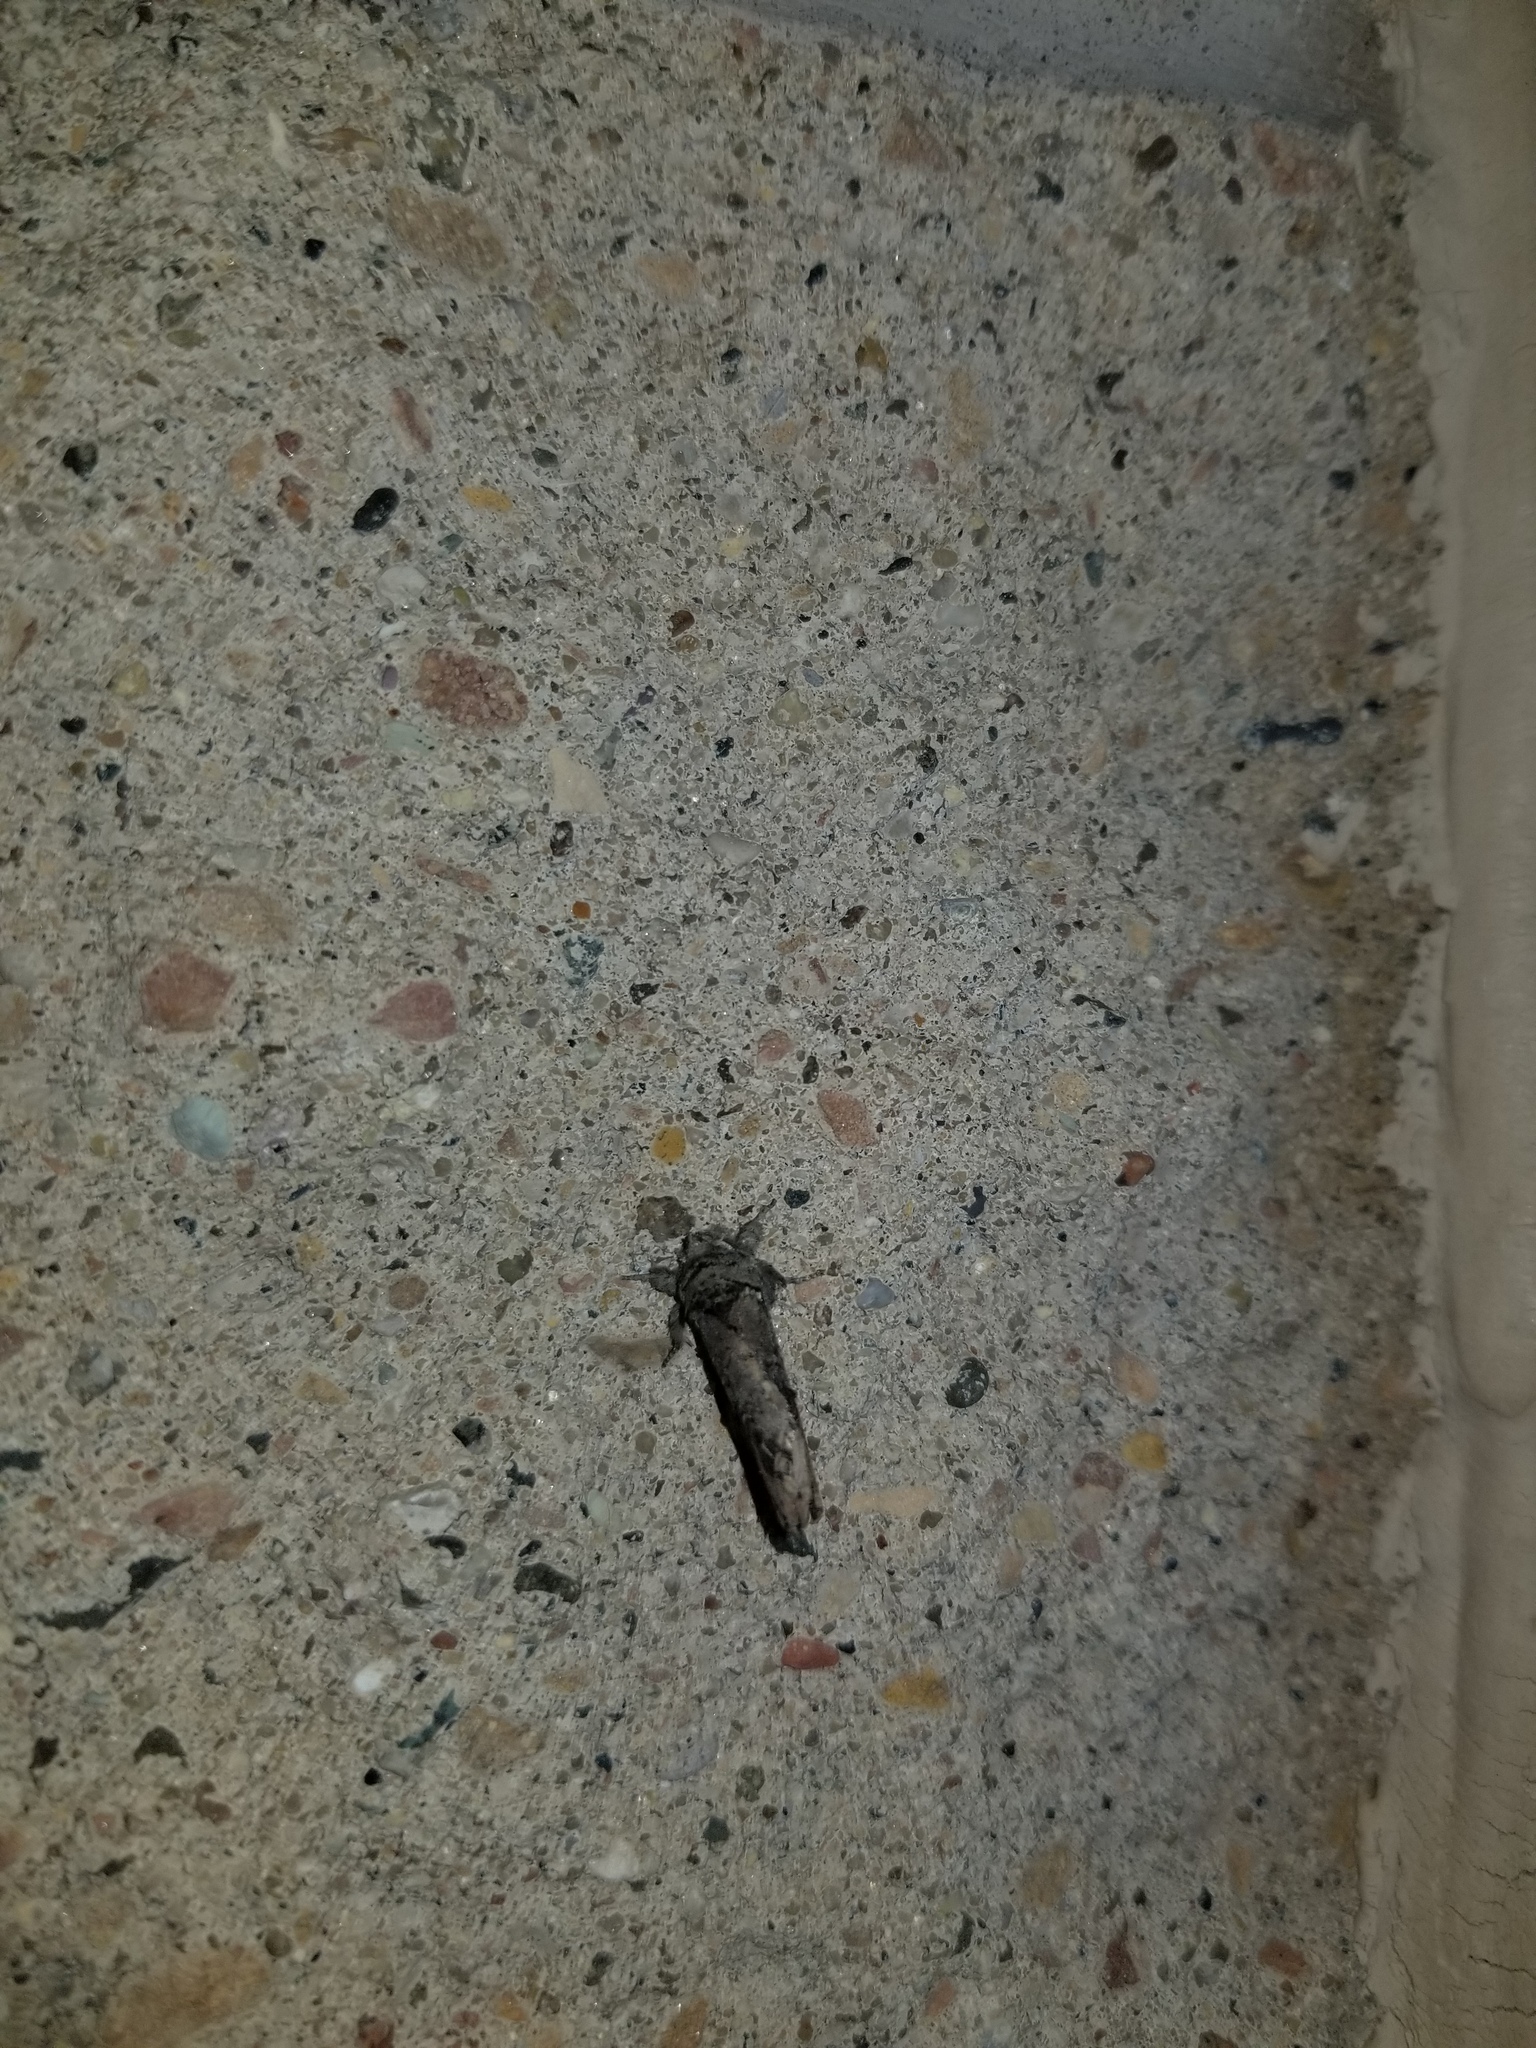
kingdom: Animalia
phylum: Arthropoda
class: Insecta
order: Lepidoptera
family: Notodontidae
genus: Schizura
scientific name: Schizura
